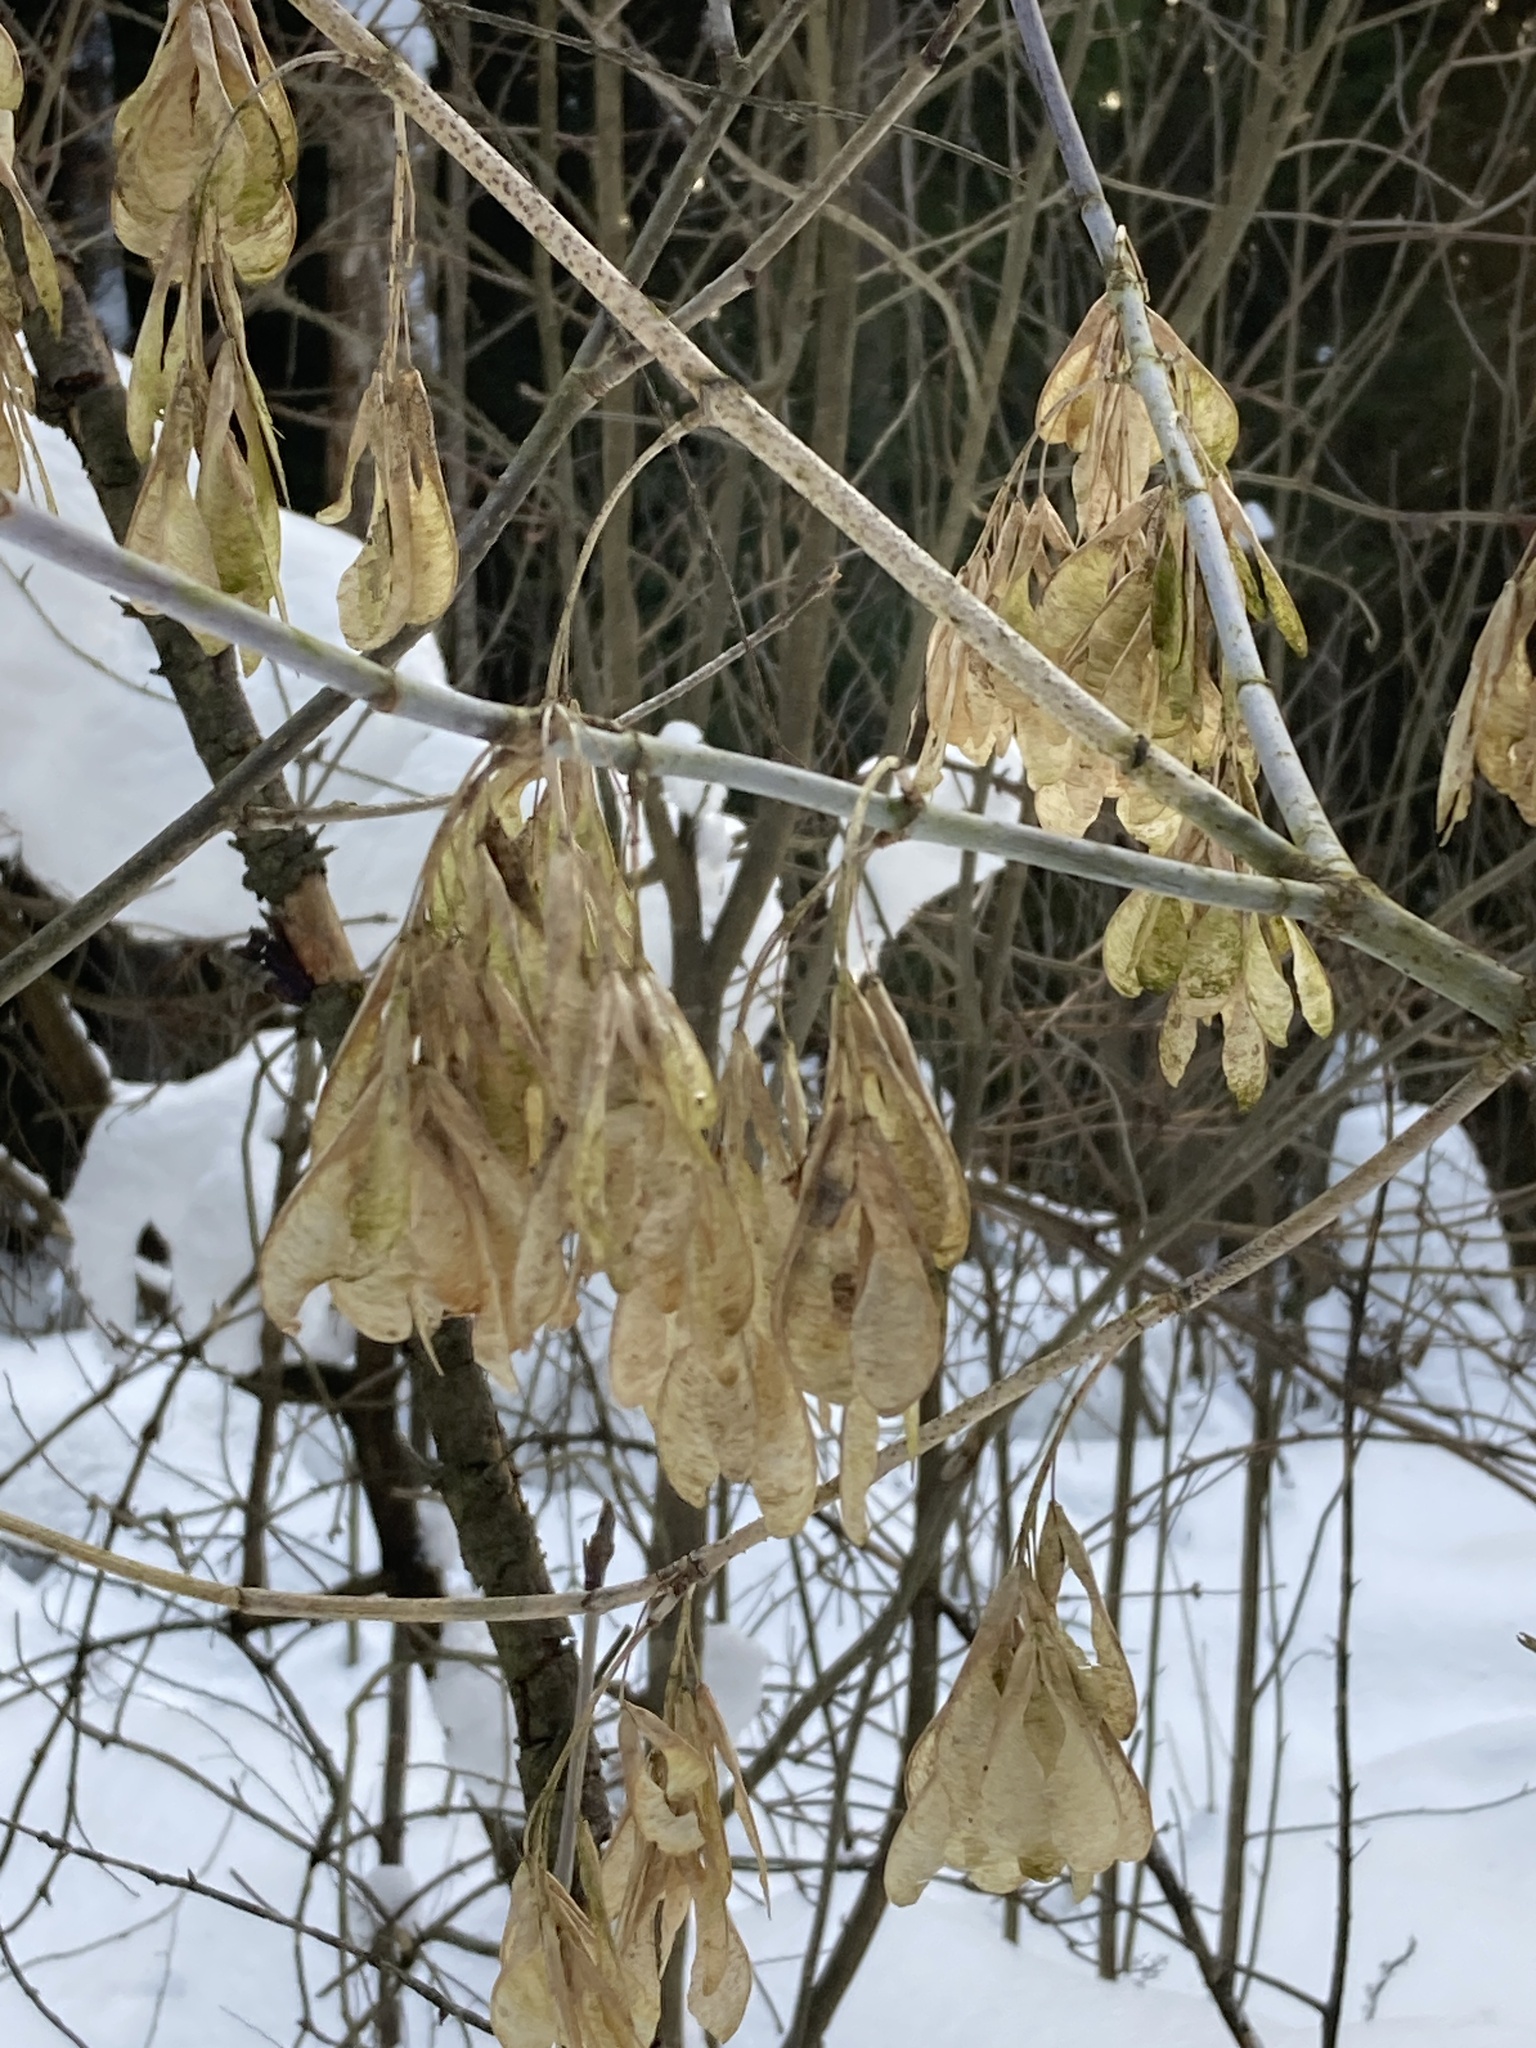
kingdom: Plantae
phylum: Tracheophyta
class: Magnoliopsida
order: Sapindales
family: Sapindaceae
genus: Acer
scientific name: Acer negundo
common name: Ashleaf maple
